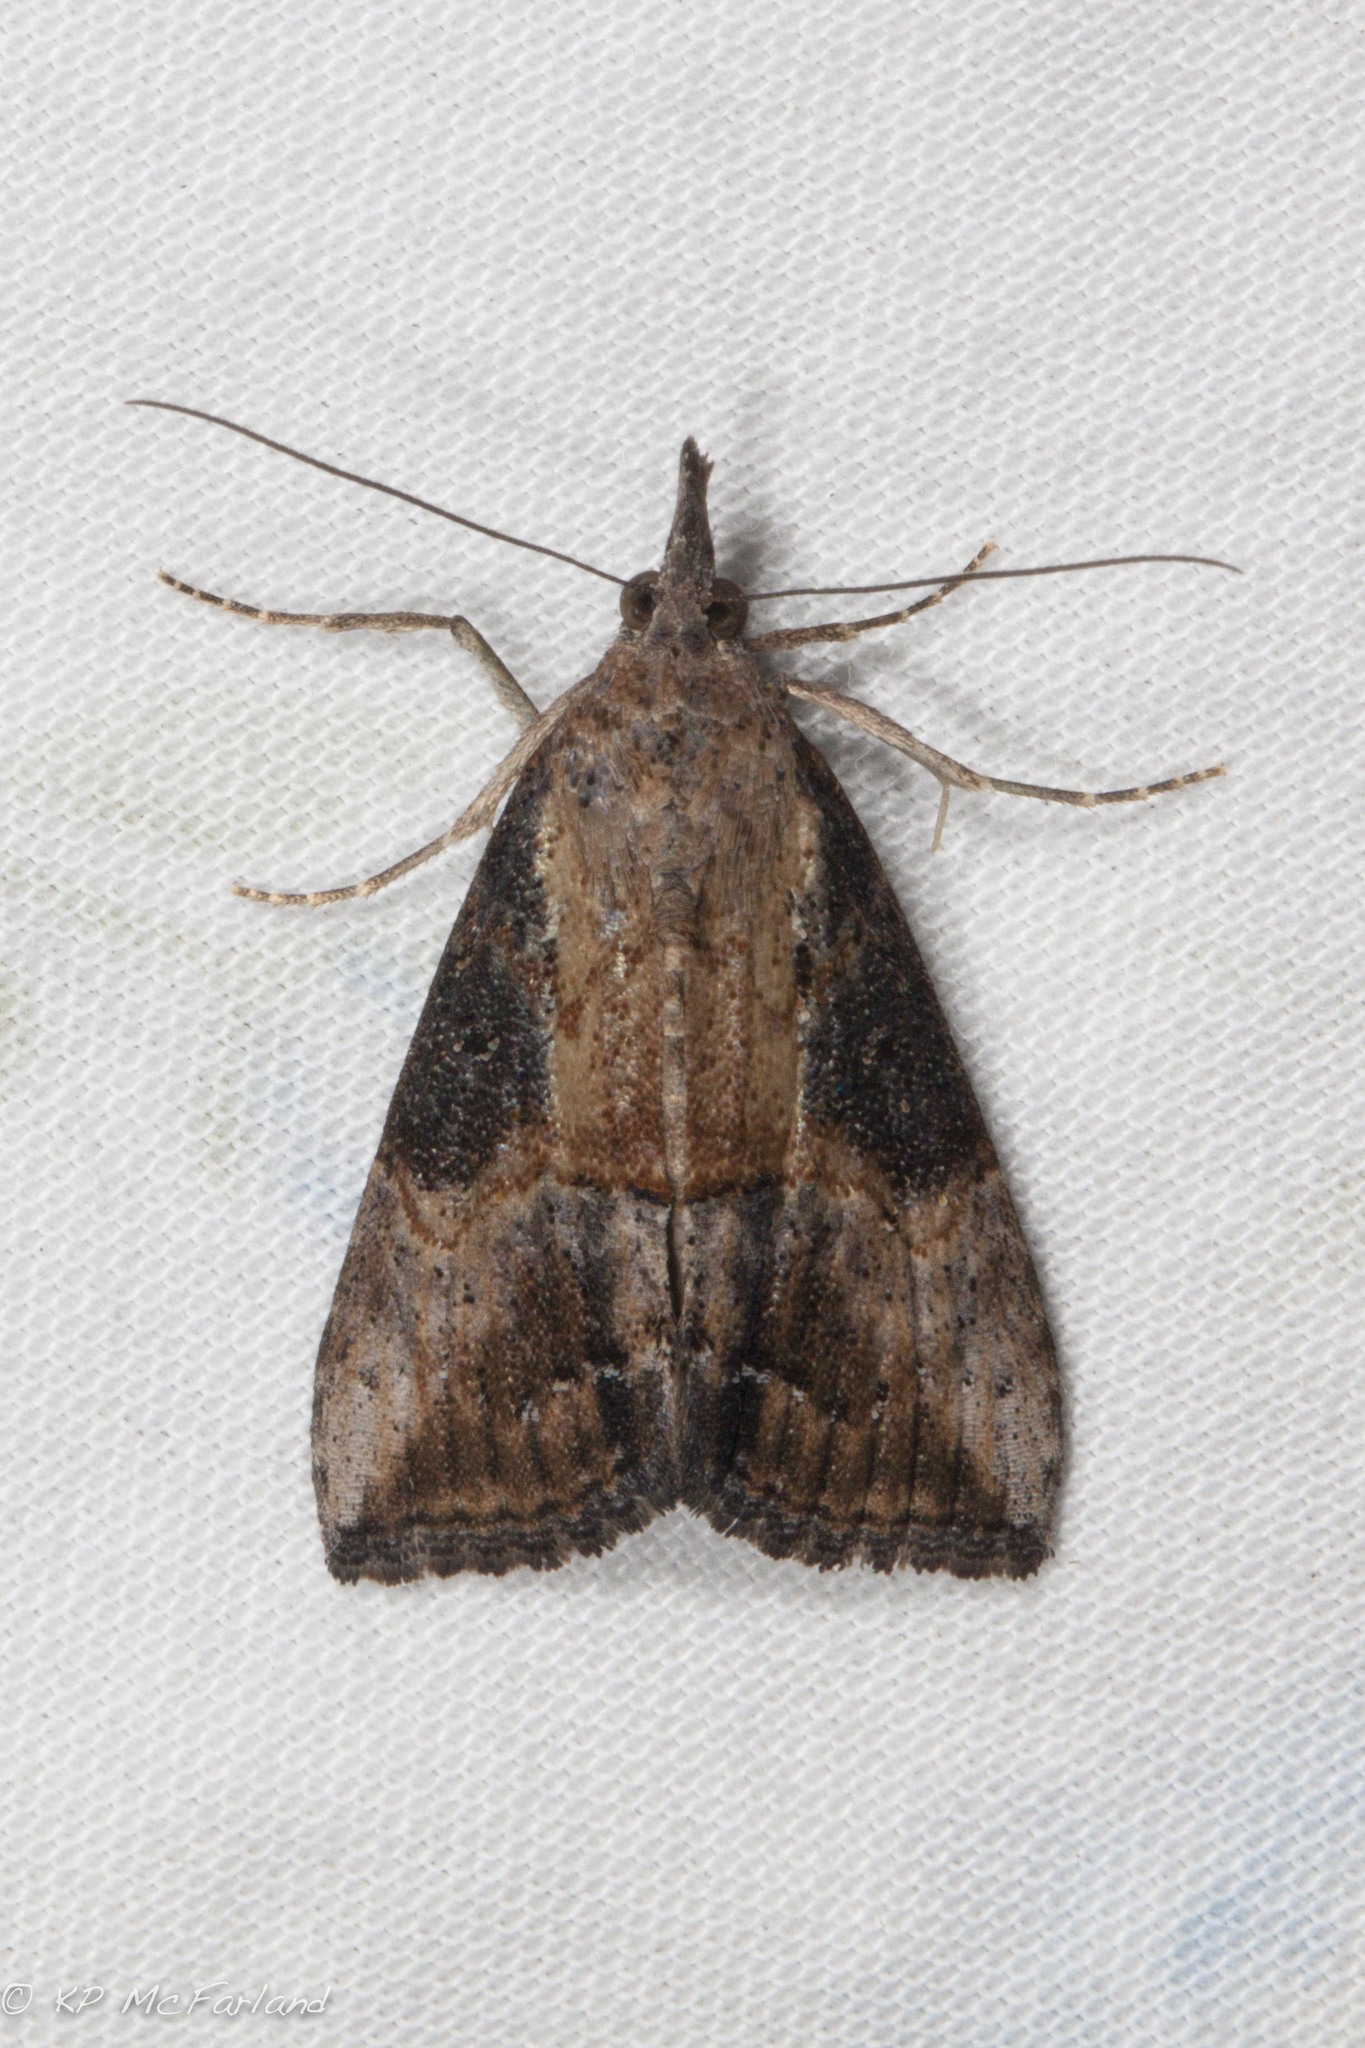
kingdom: Animalia
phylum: Arthropoda
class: Insecta
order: Lepidoptera
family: Erebidae
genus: Hypena
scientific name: Hypena scabra
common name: Green cloverworm
